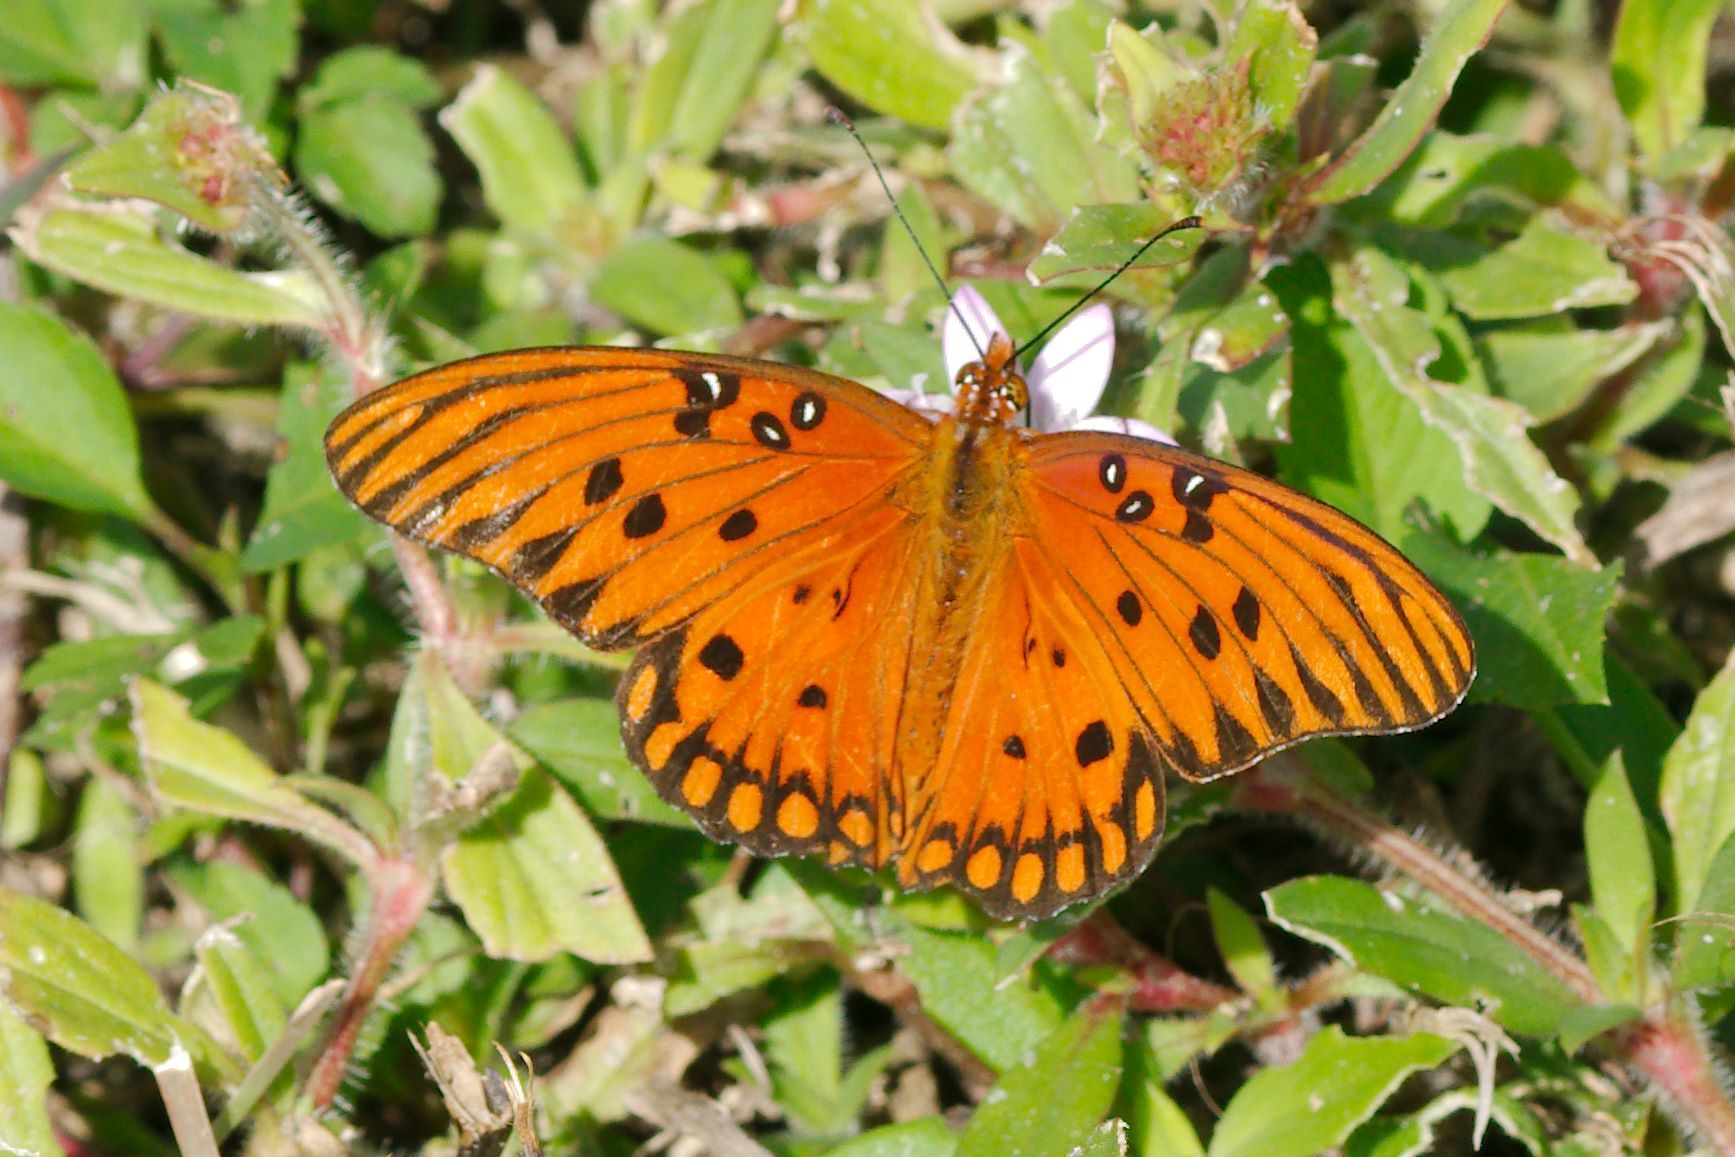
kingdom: Animalia
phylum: Arthropoda
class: Insecta
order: Lepidoptera
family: Nymphalidae
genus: Dione
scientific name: Dione vanillae
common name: Gulf fritillary
